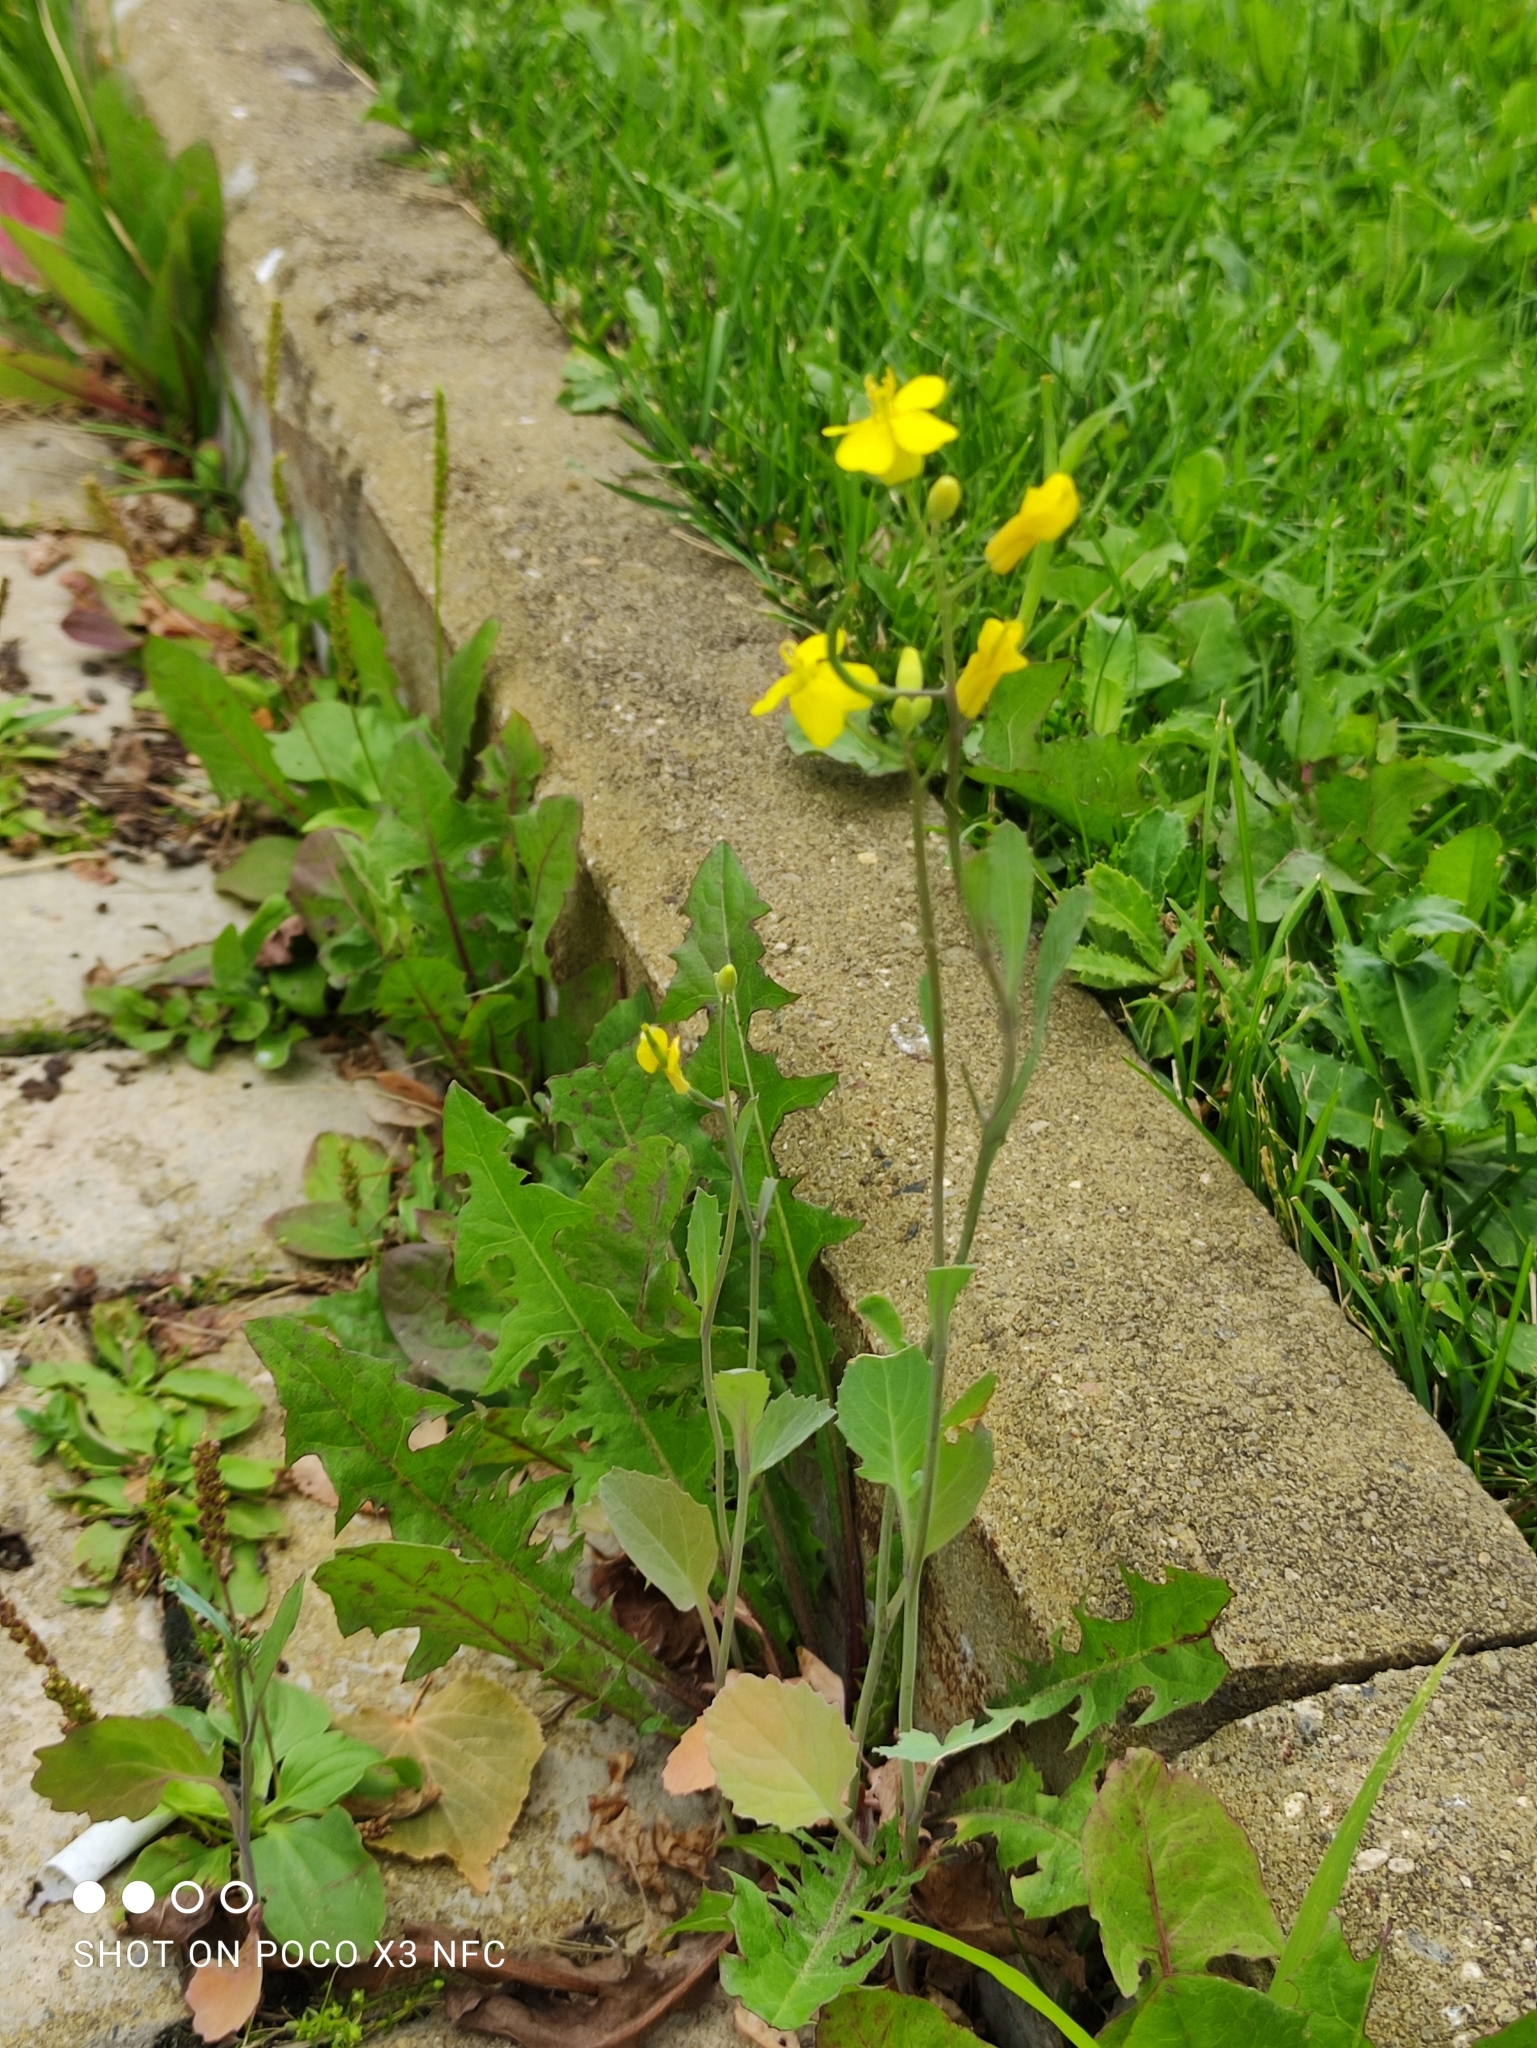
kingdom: Plantae
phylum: Tracheophyta
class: Magnoliopsida
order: Brassicales
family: Brassicaceae
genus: Brassica
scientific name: Brassica rapa
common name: Field mustard
